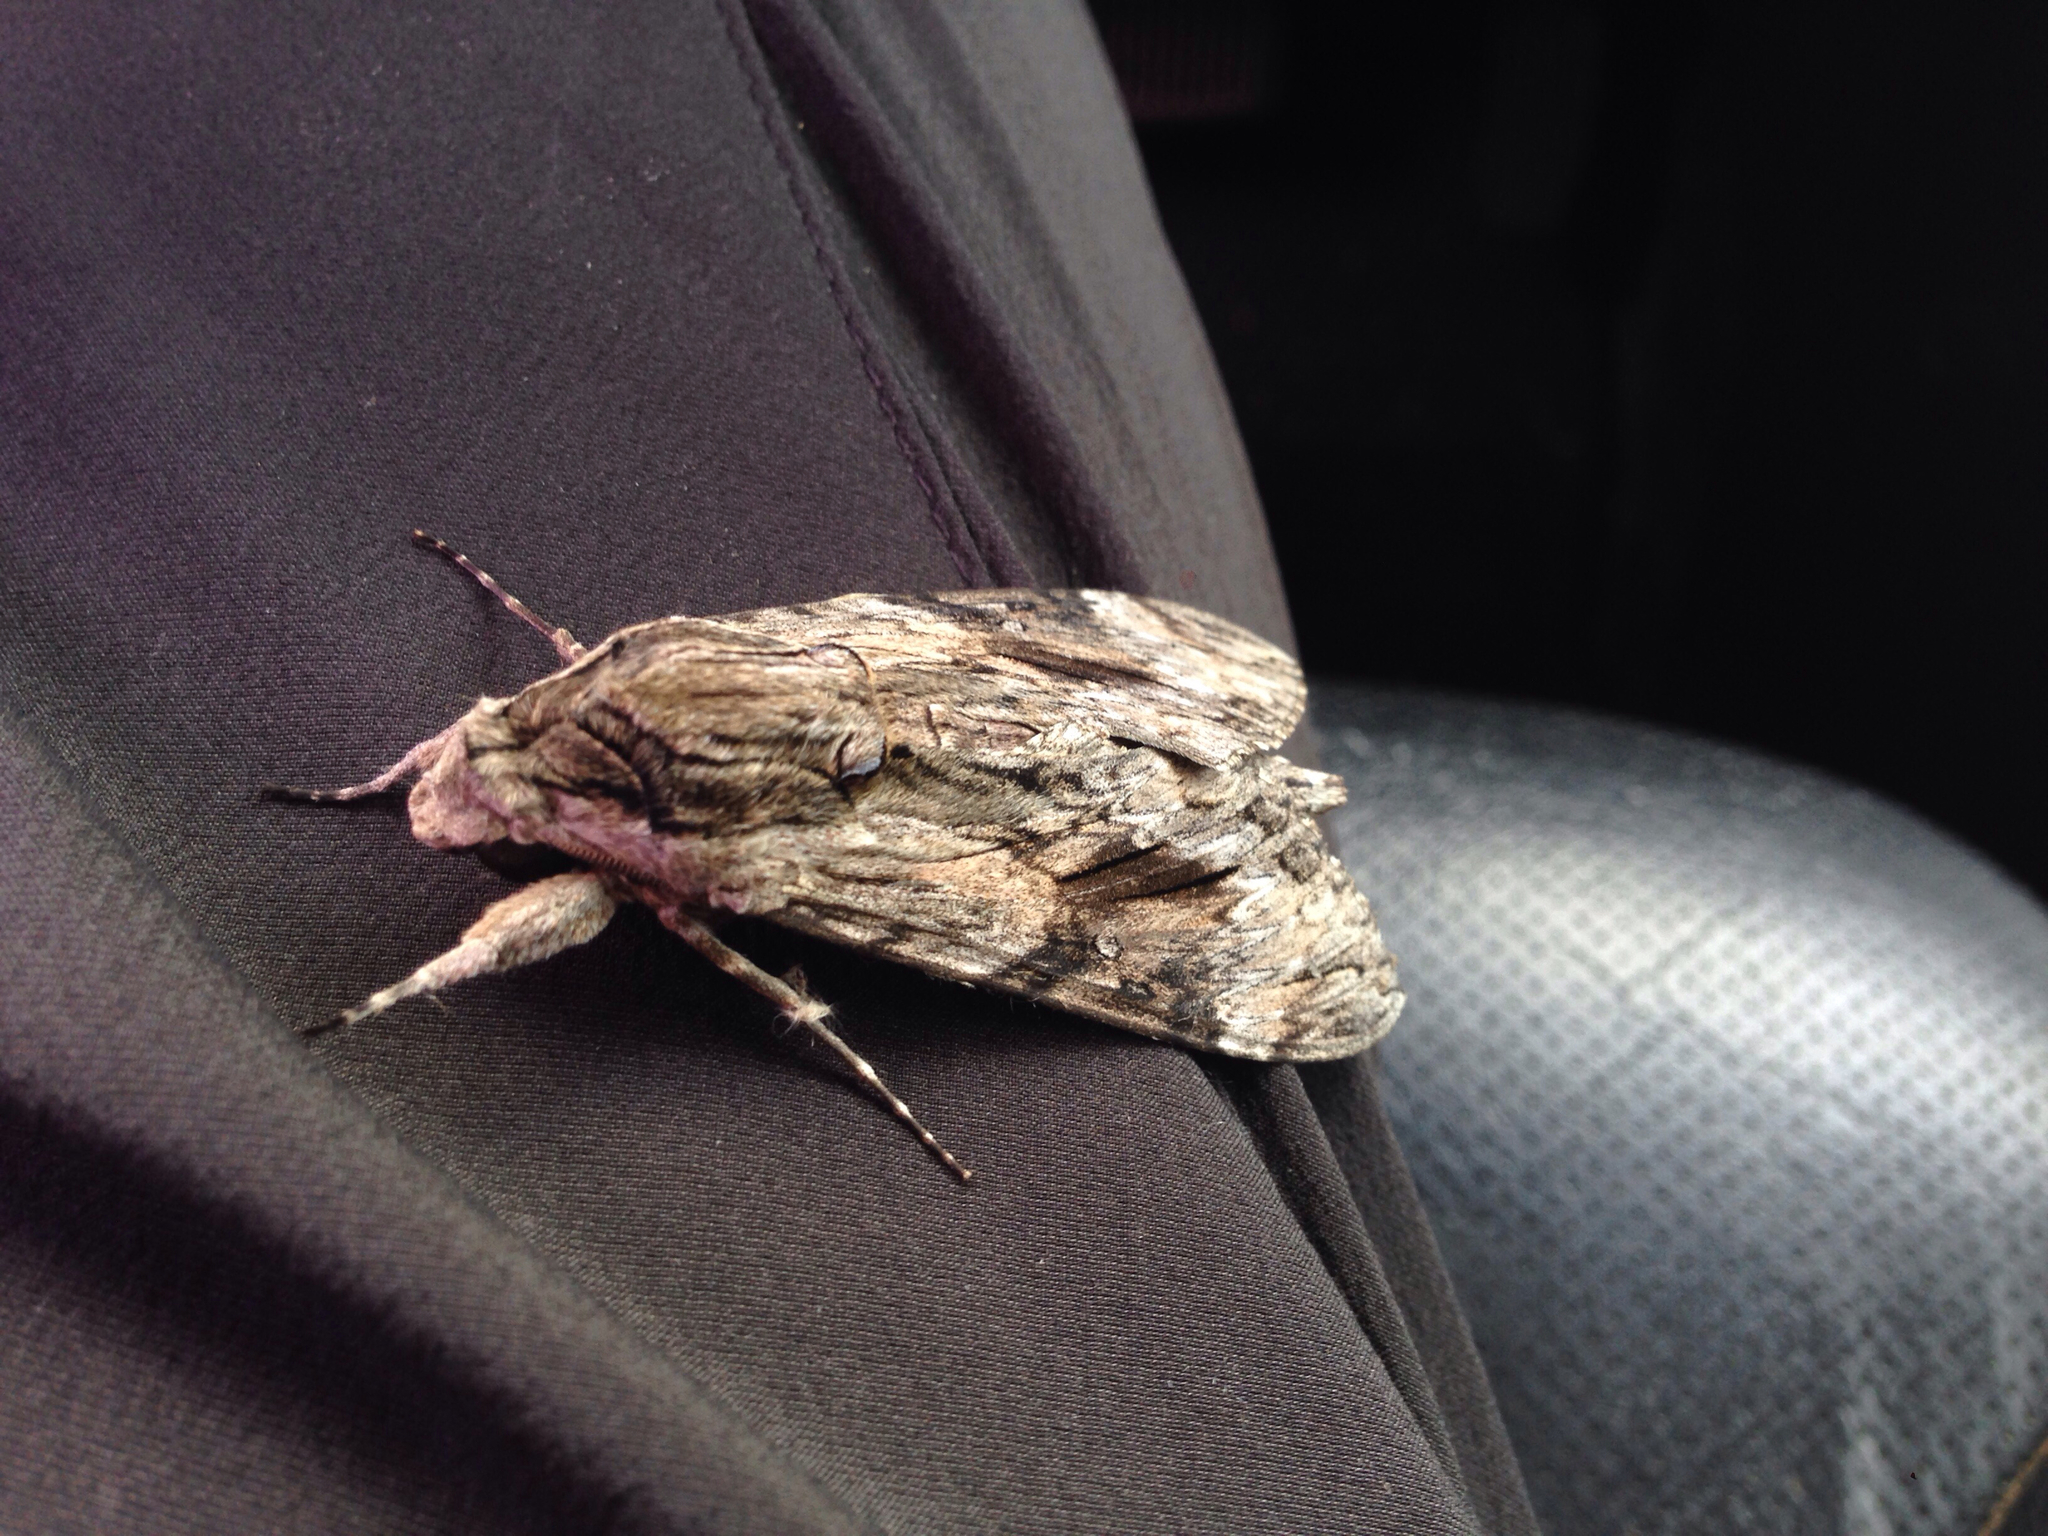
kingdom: Animalia
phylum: Arthropoda
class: Insecta
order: Lepidoptera
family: Sphingidae
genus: Agrius
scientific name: Agrius convolvuli
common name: Convolvulus hawkmoth
